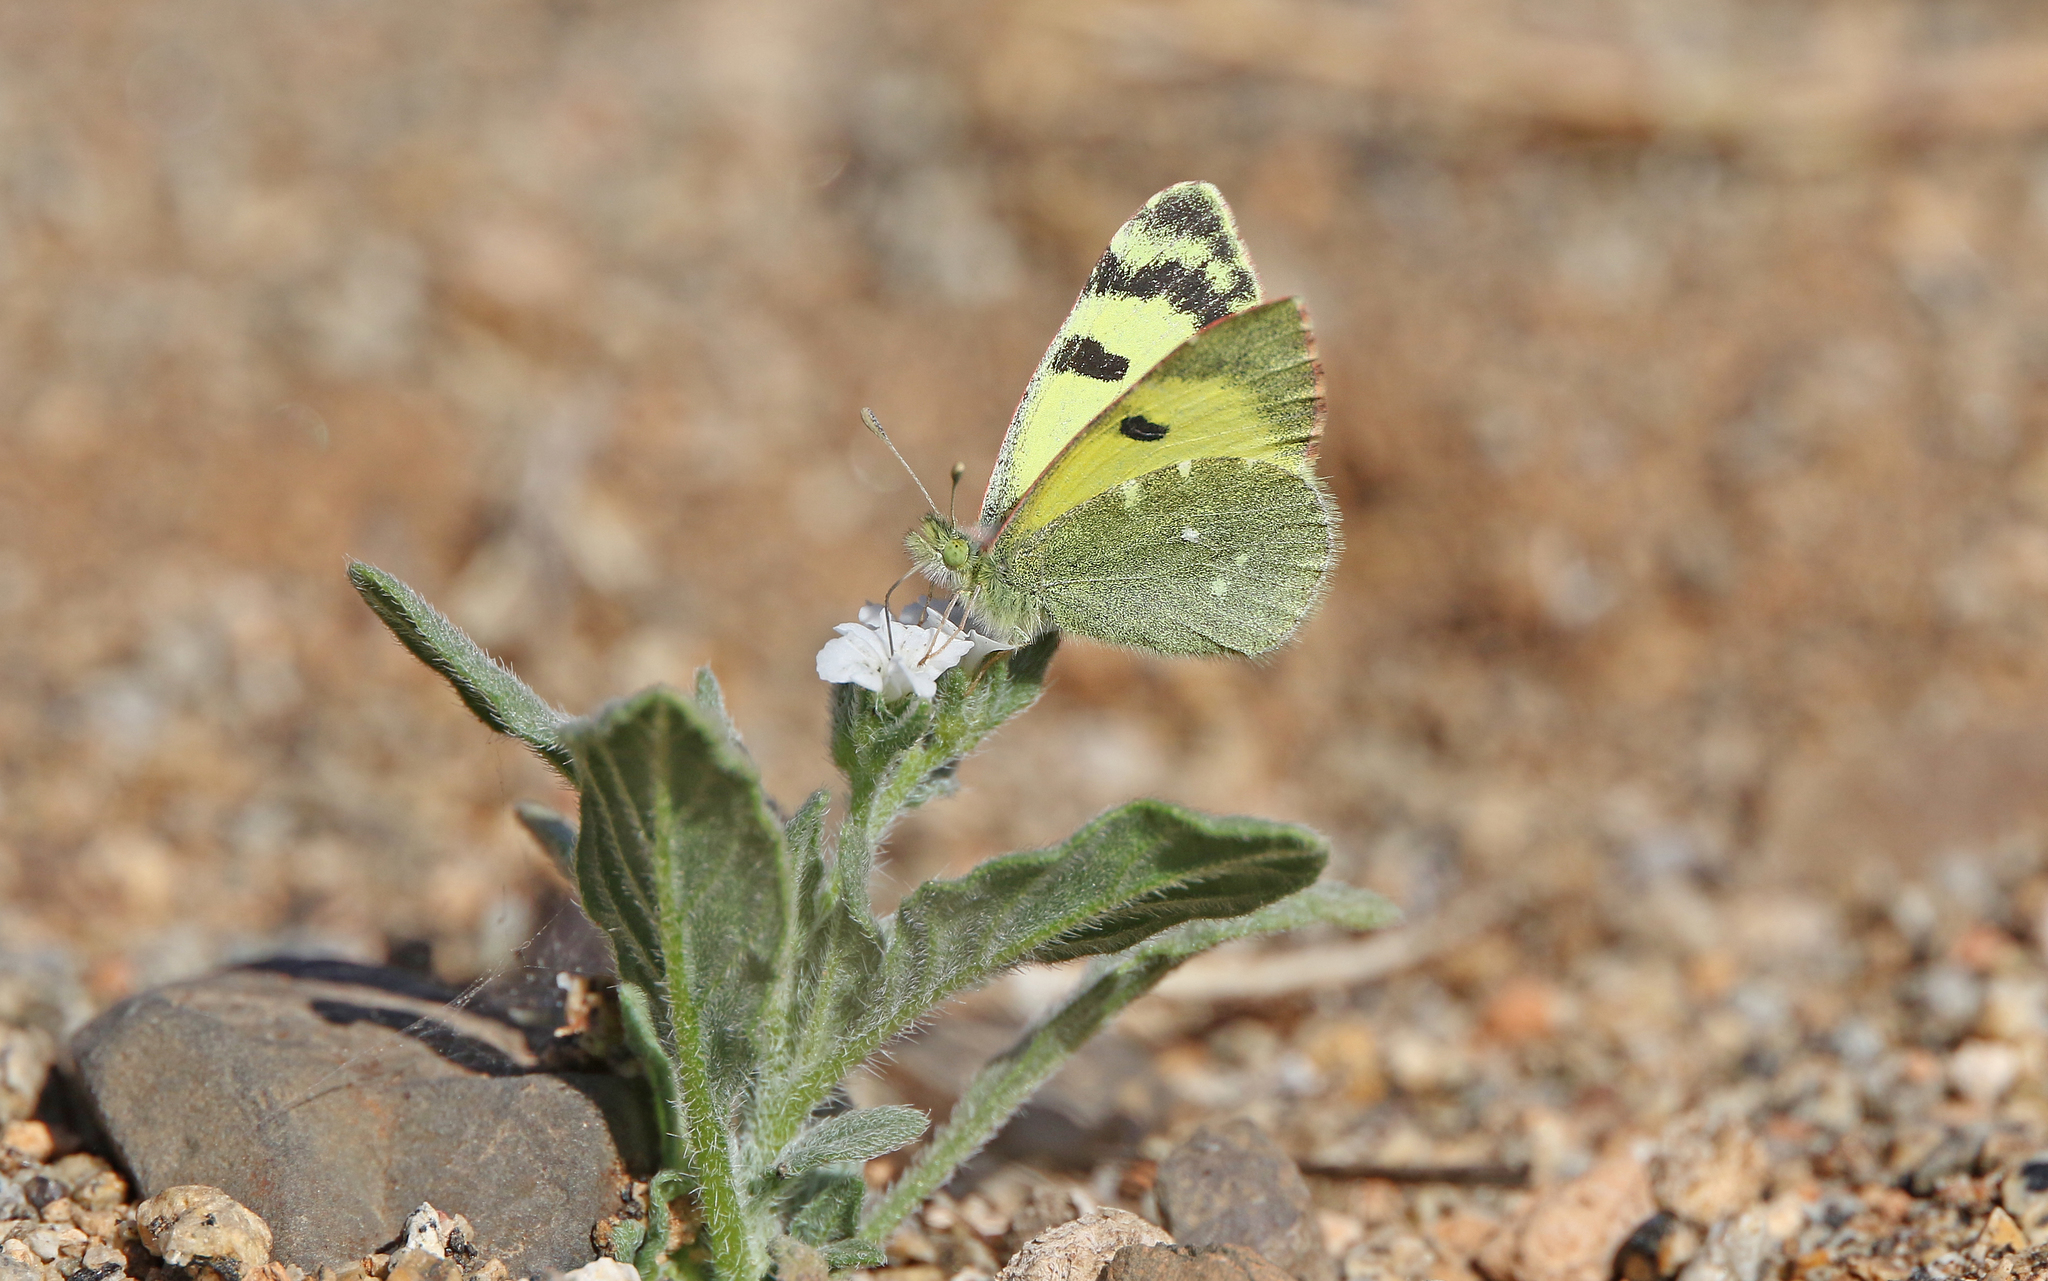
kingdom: Animalia
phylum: Arthropoda
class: Insecta
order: Lepidoptera
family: Pieridae
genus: Elphinstonia
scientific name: Elphinstonia charlonia
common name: Greenish black-tip
